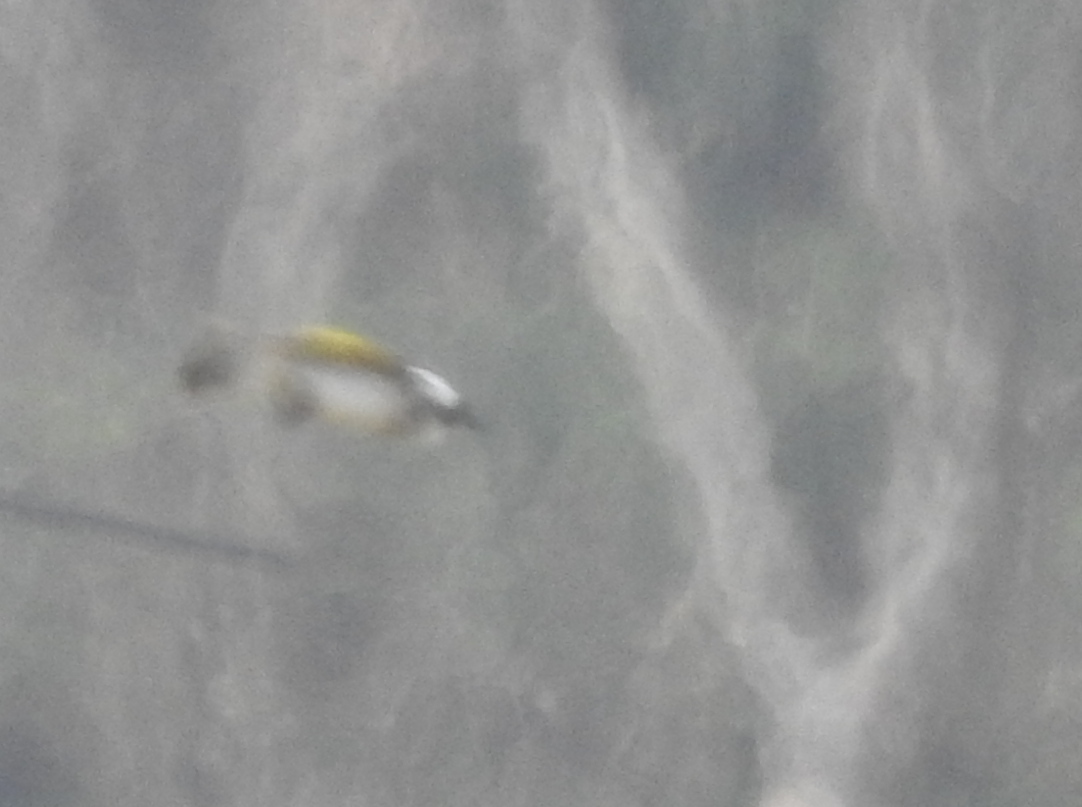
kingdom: Animalia
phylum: Chordata
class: Aves
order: Passeriformes
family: Pycnonotidae
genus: Pycnonotus
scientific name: Pycnonotus sinensis
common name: Light-vented bulbul
